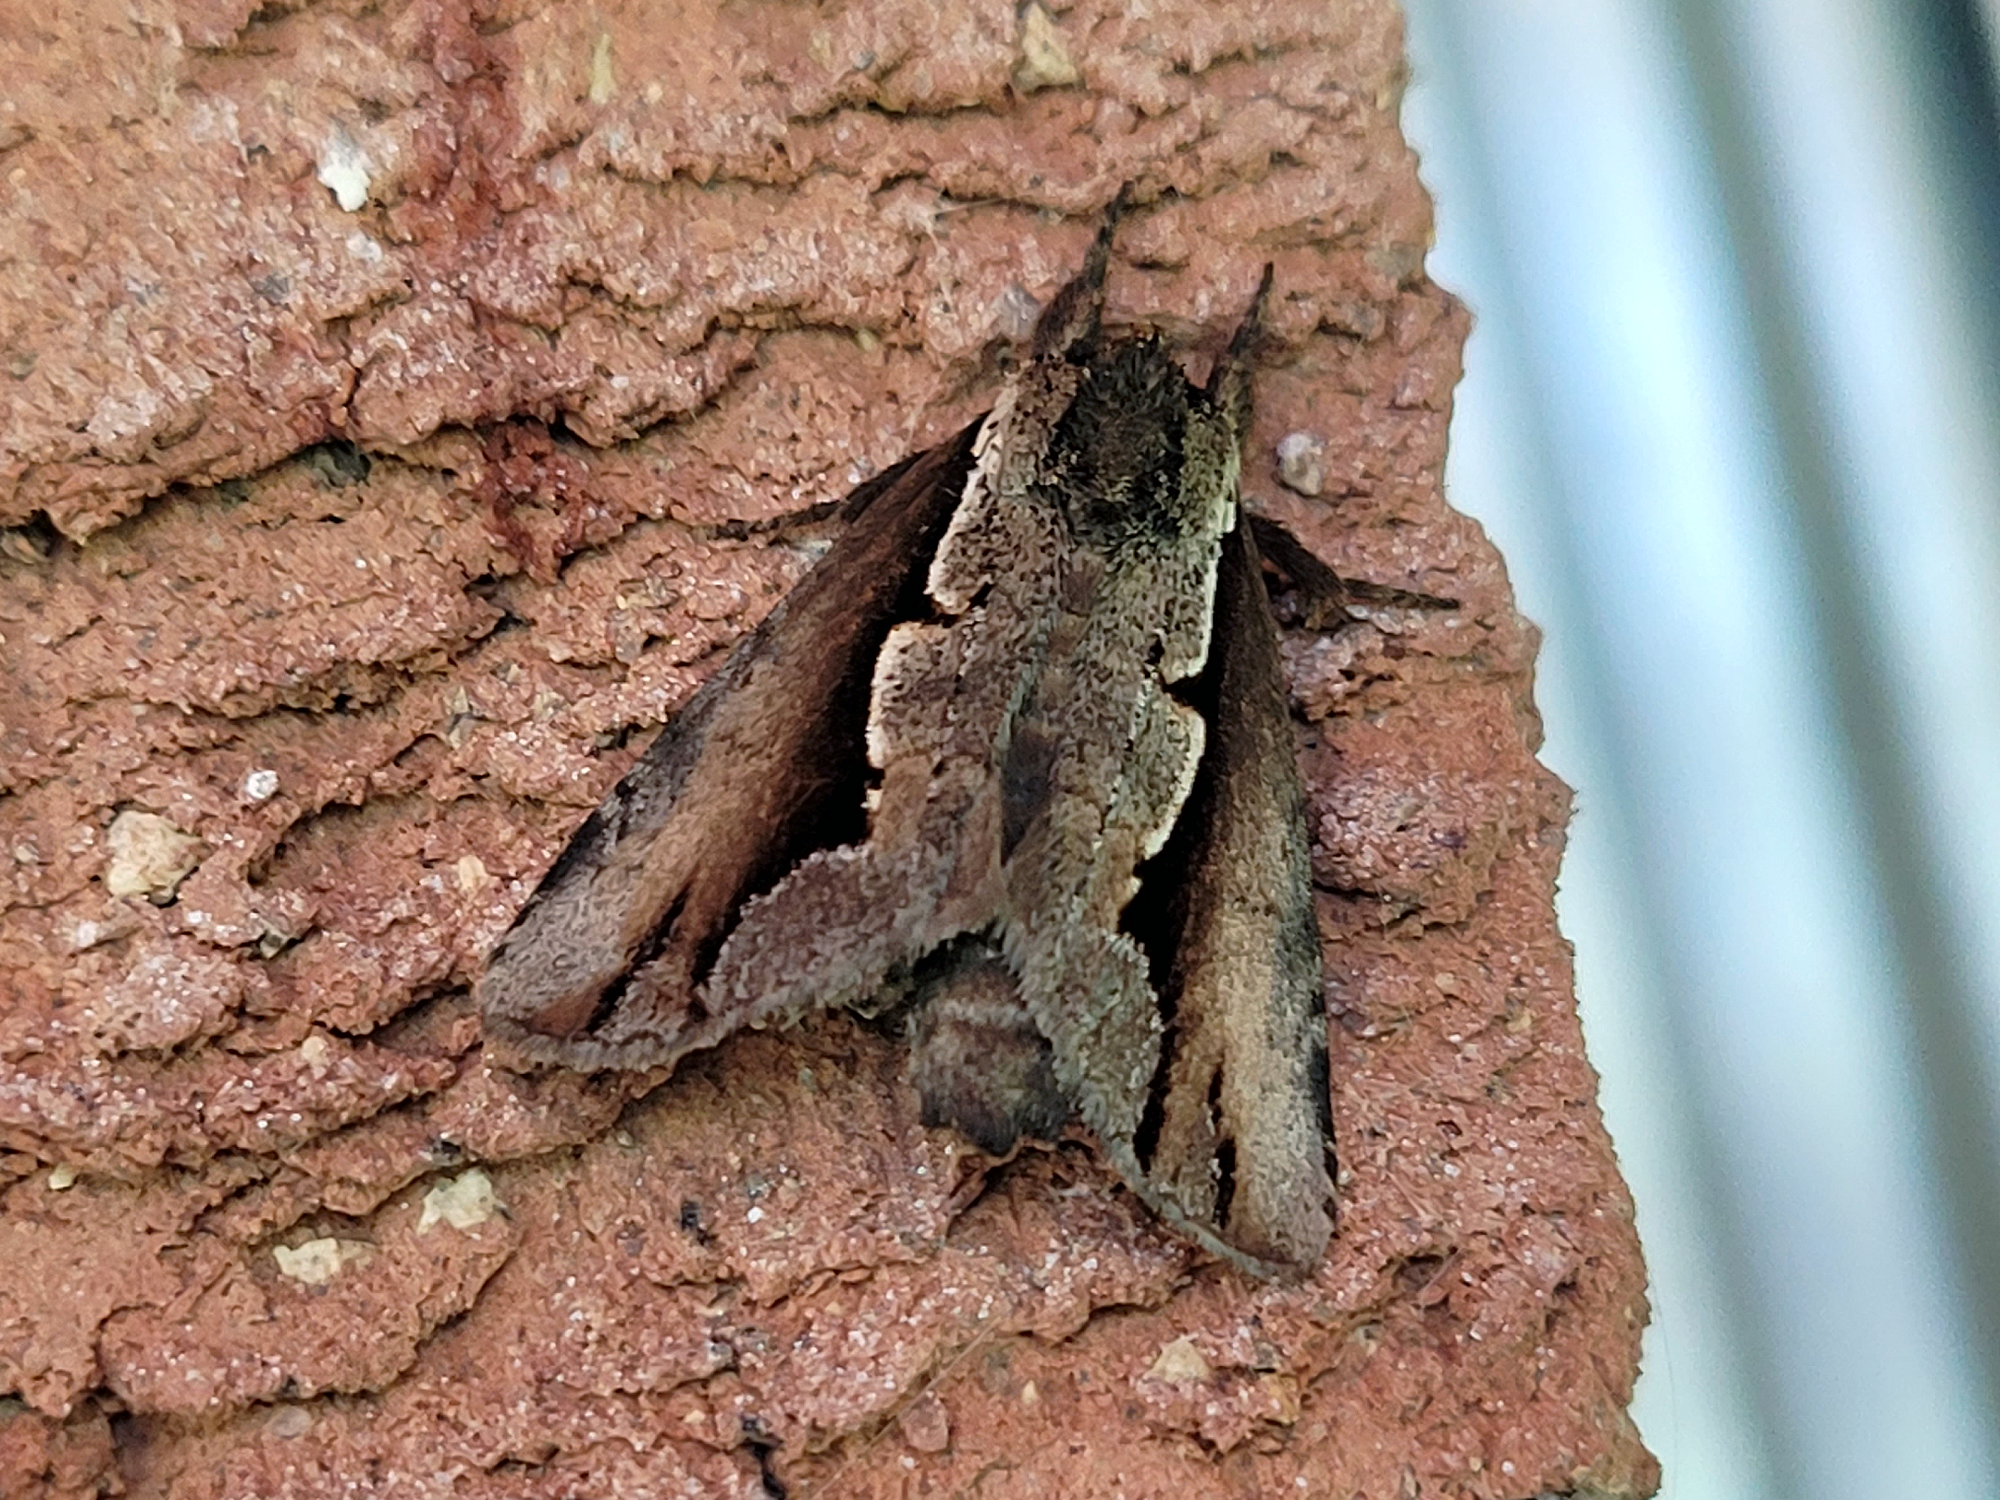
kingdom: Animalia
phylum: Arthropoda
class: Insecta
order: Lepidoptera
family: Notodontidae
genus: Nerice
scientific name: Nerice bidentata
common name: Double-toothed prominent
